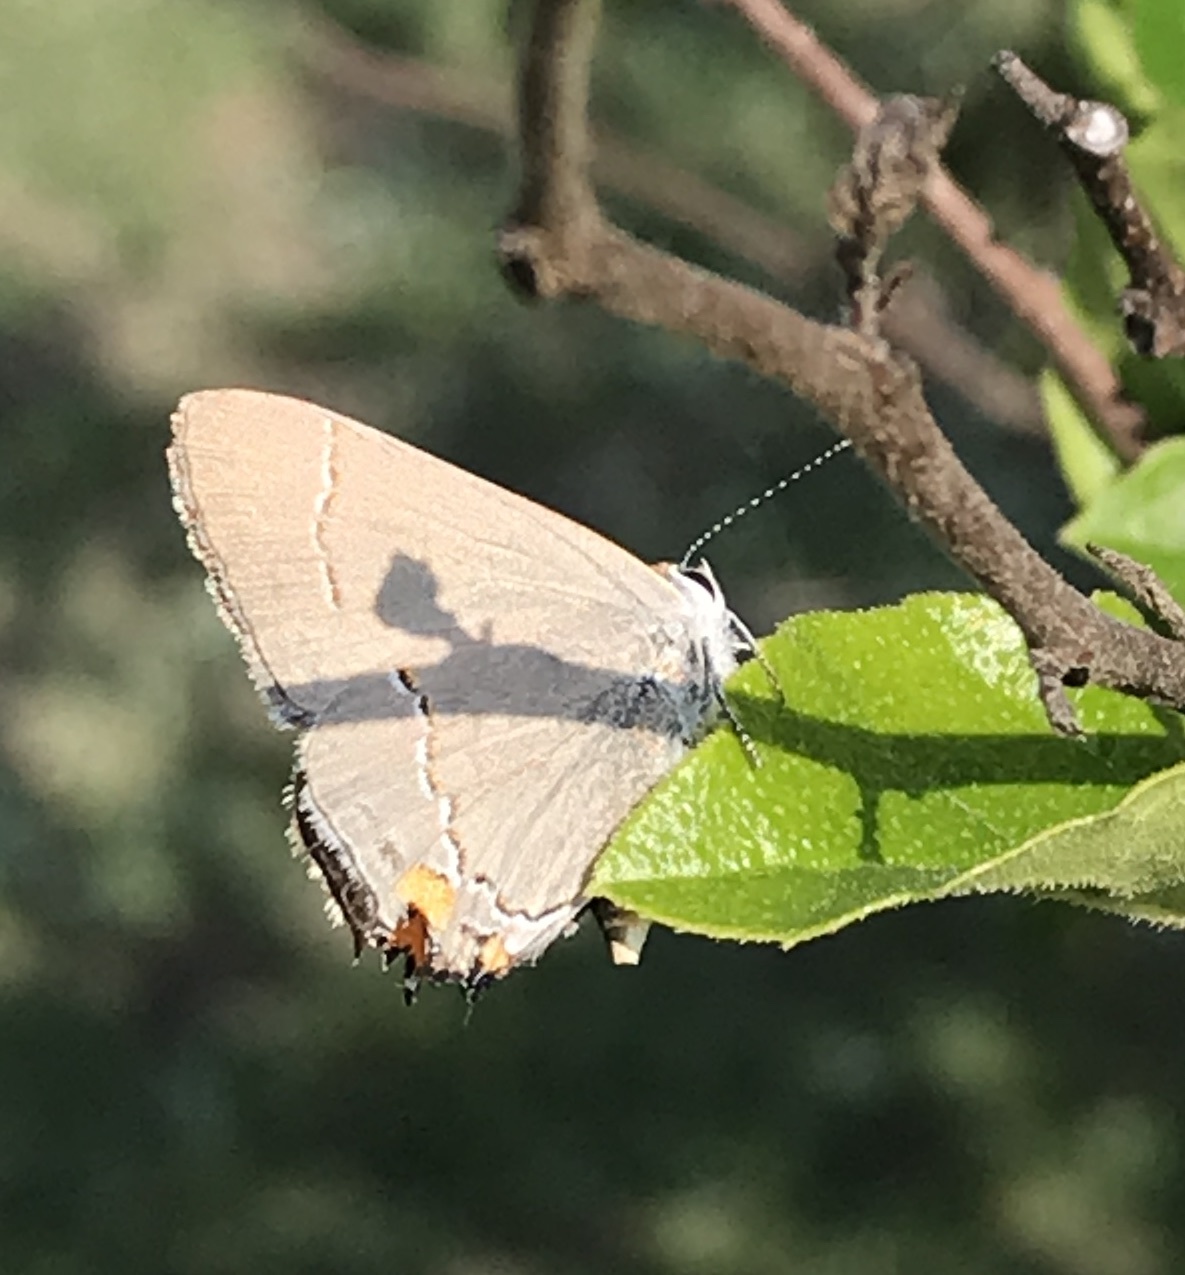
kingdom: Animalia
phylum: Arthropoda
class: Insecta
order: Lepidoptera
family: Lycaenidae
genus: Strymon
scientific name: Strymon melinus
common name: Gray hairstreak
